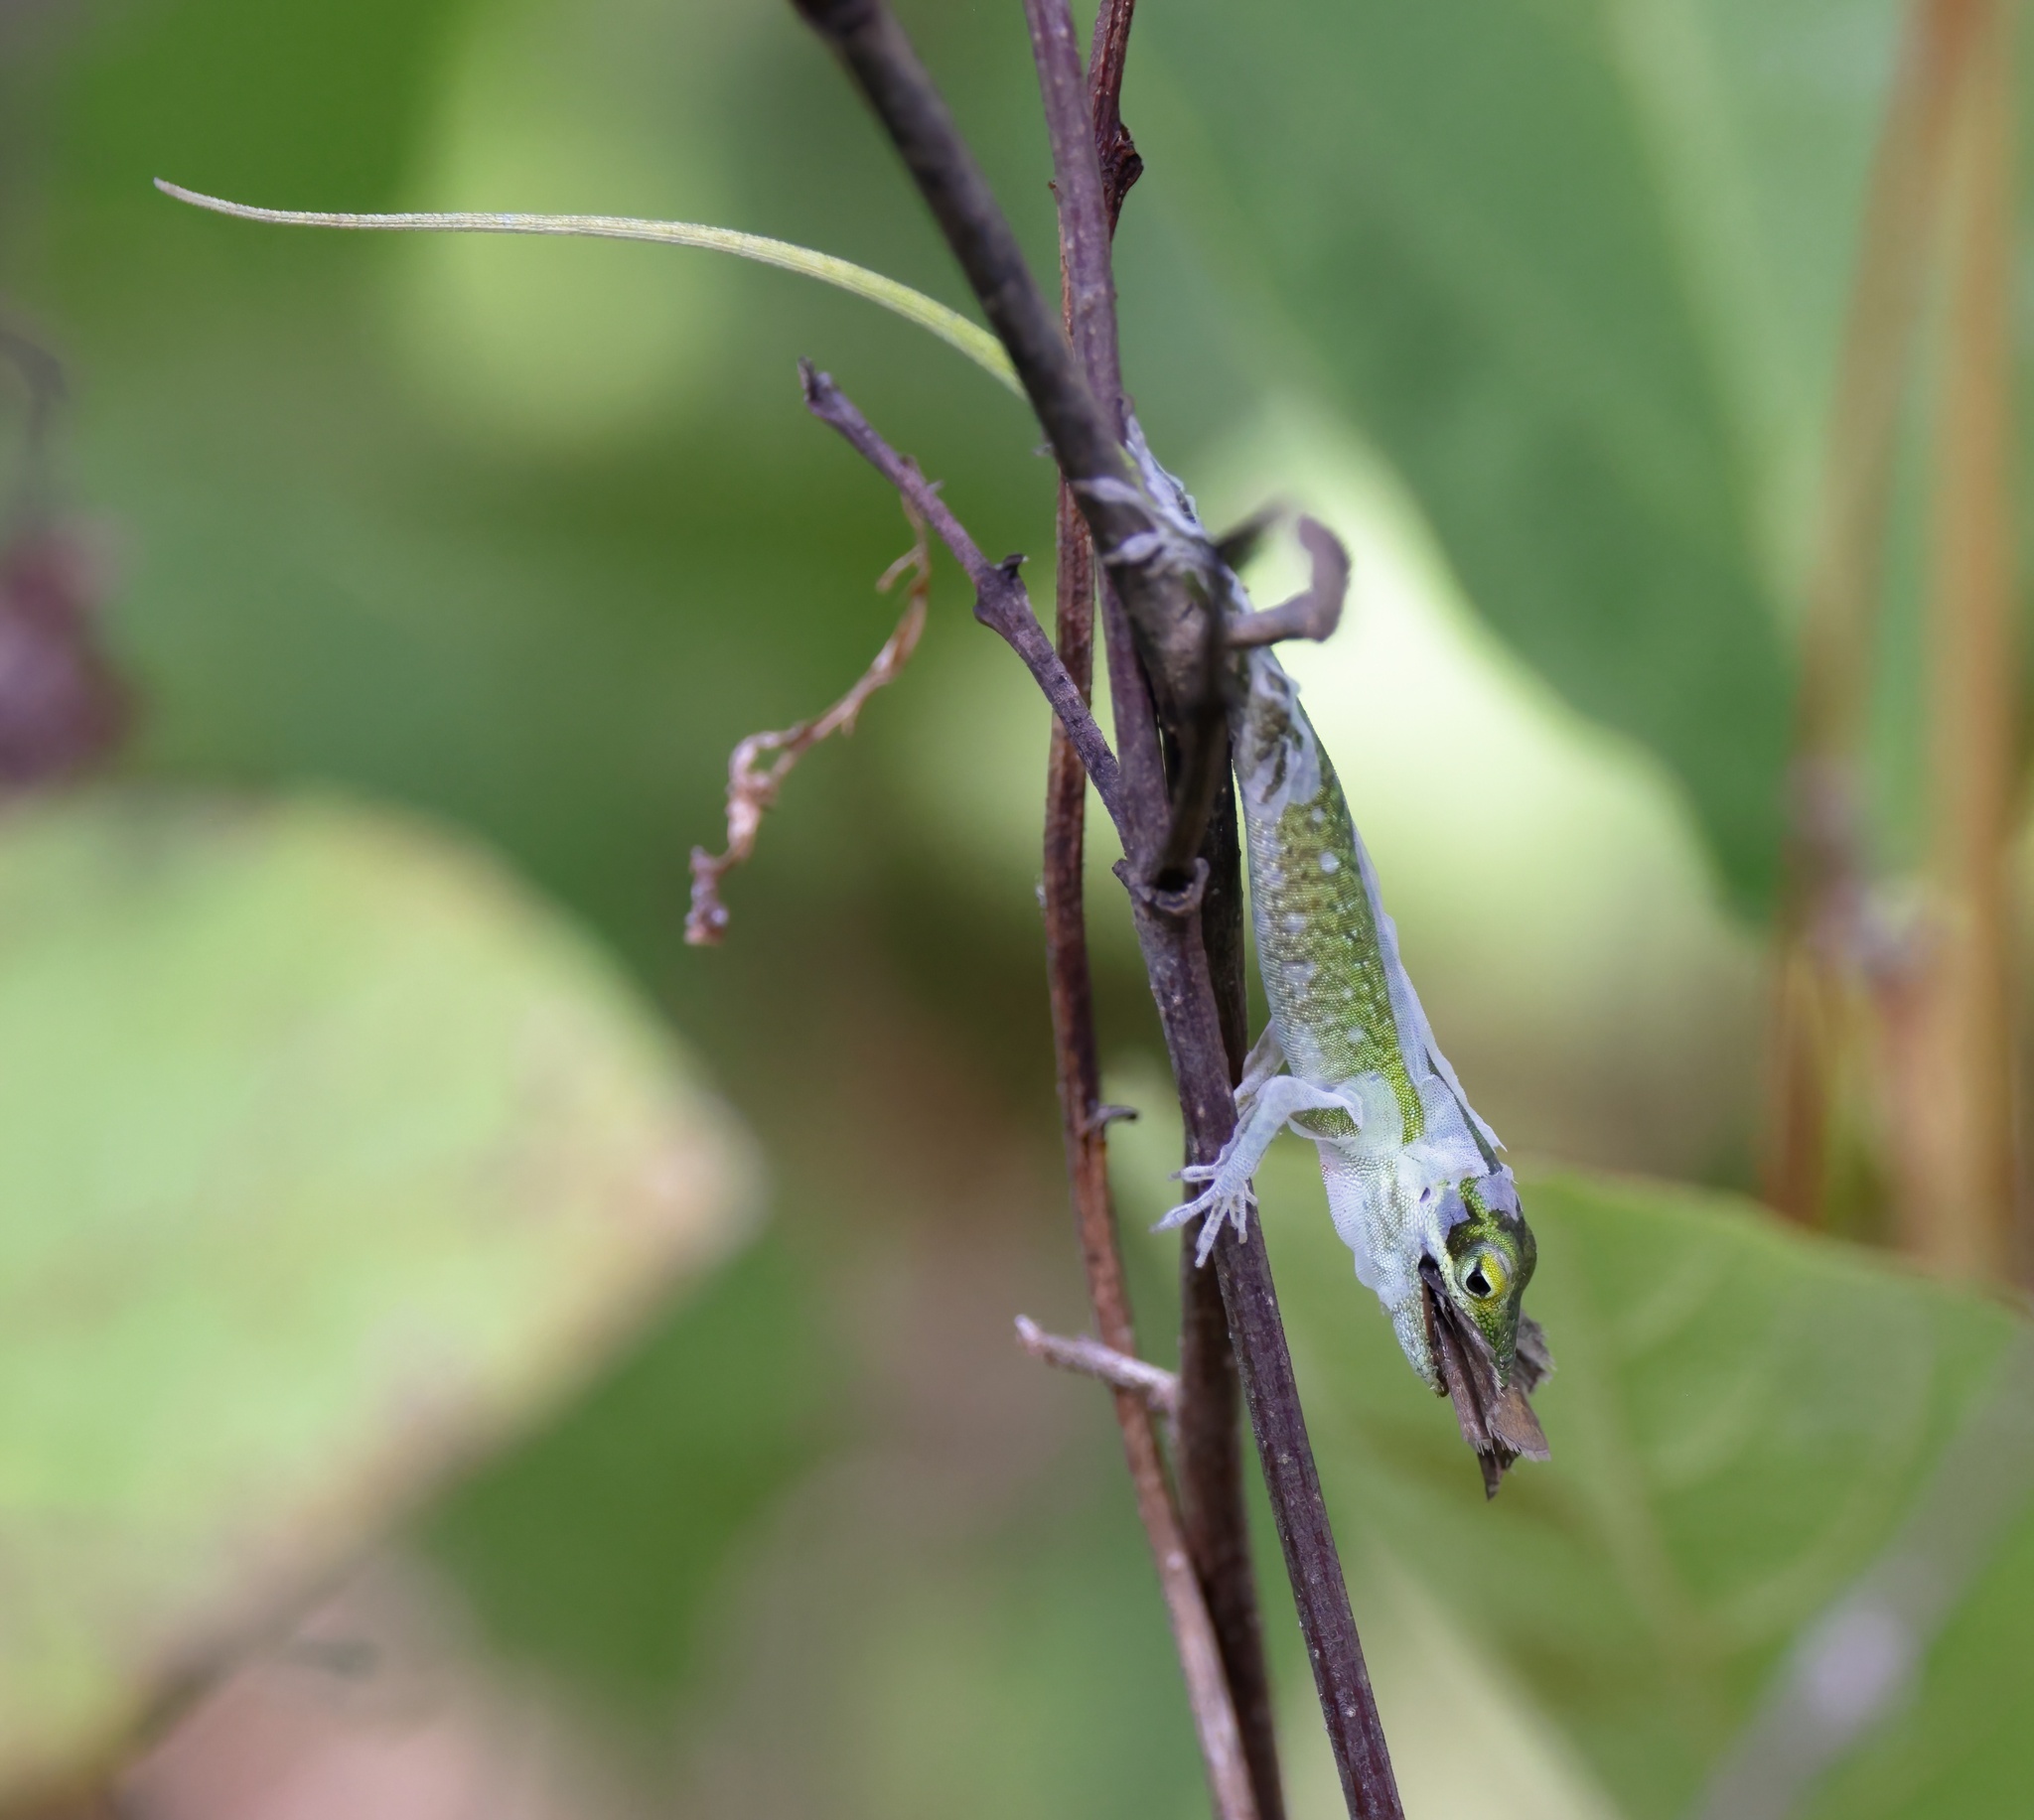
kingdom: Animalia
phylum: Chordata
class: Squamata
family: Dactyloidae
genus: Anolis
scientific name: Anolis carolinensis
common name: Green anole
